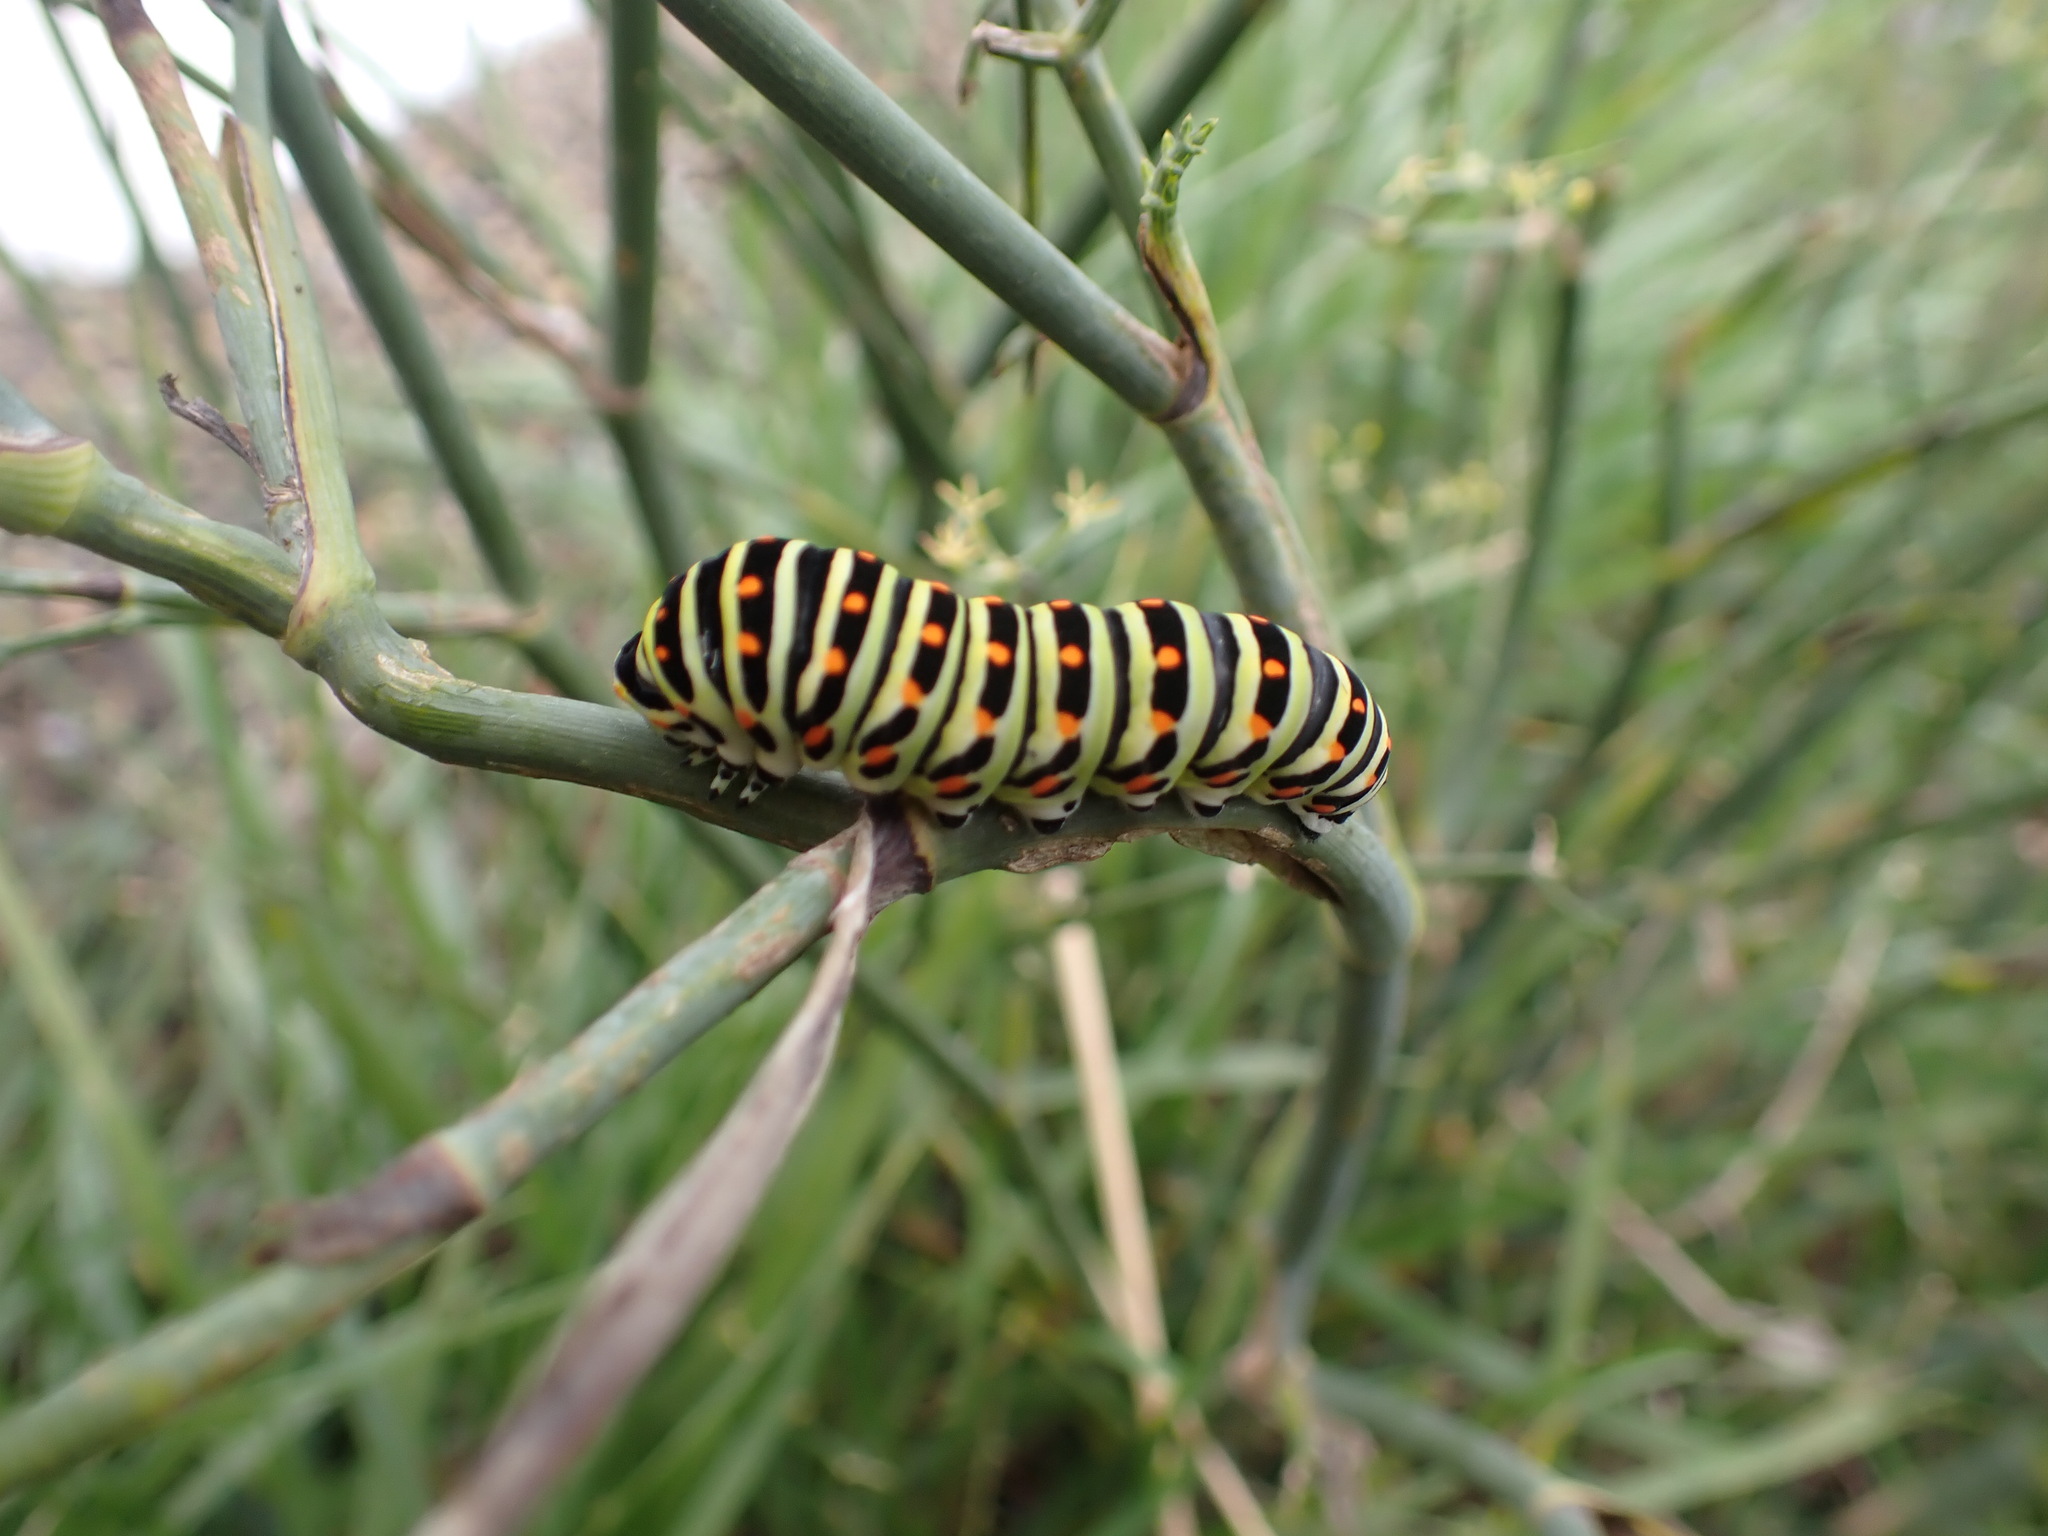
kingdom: Animalia
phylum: Arthropoda
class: Insecta
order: Lepidoptera
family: Papilionidae
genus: Papilio
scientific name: Papilio machaon
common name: Swallowtail
